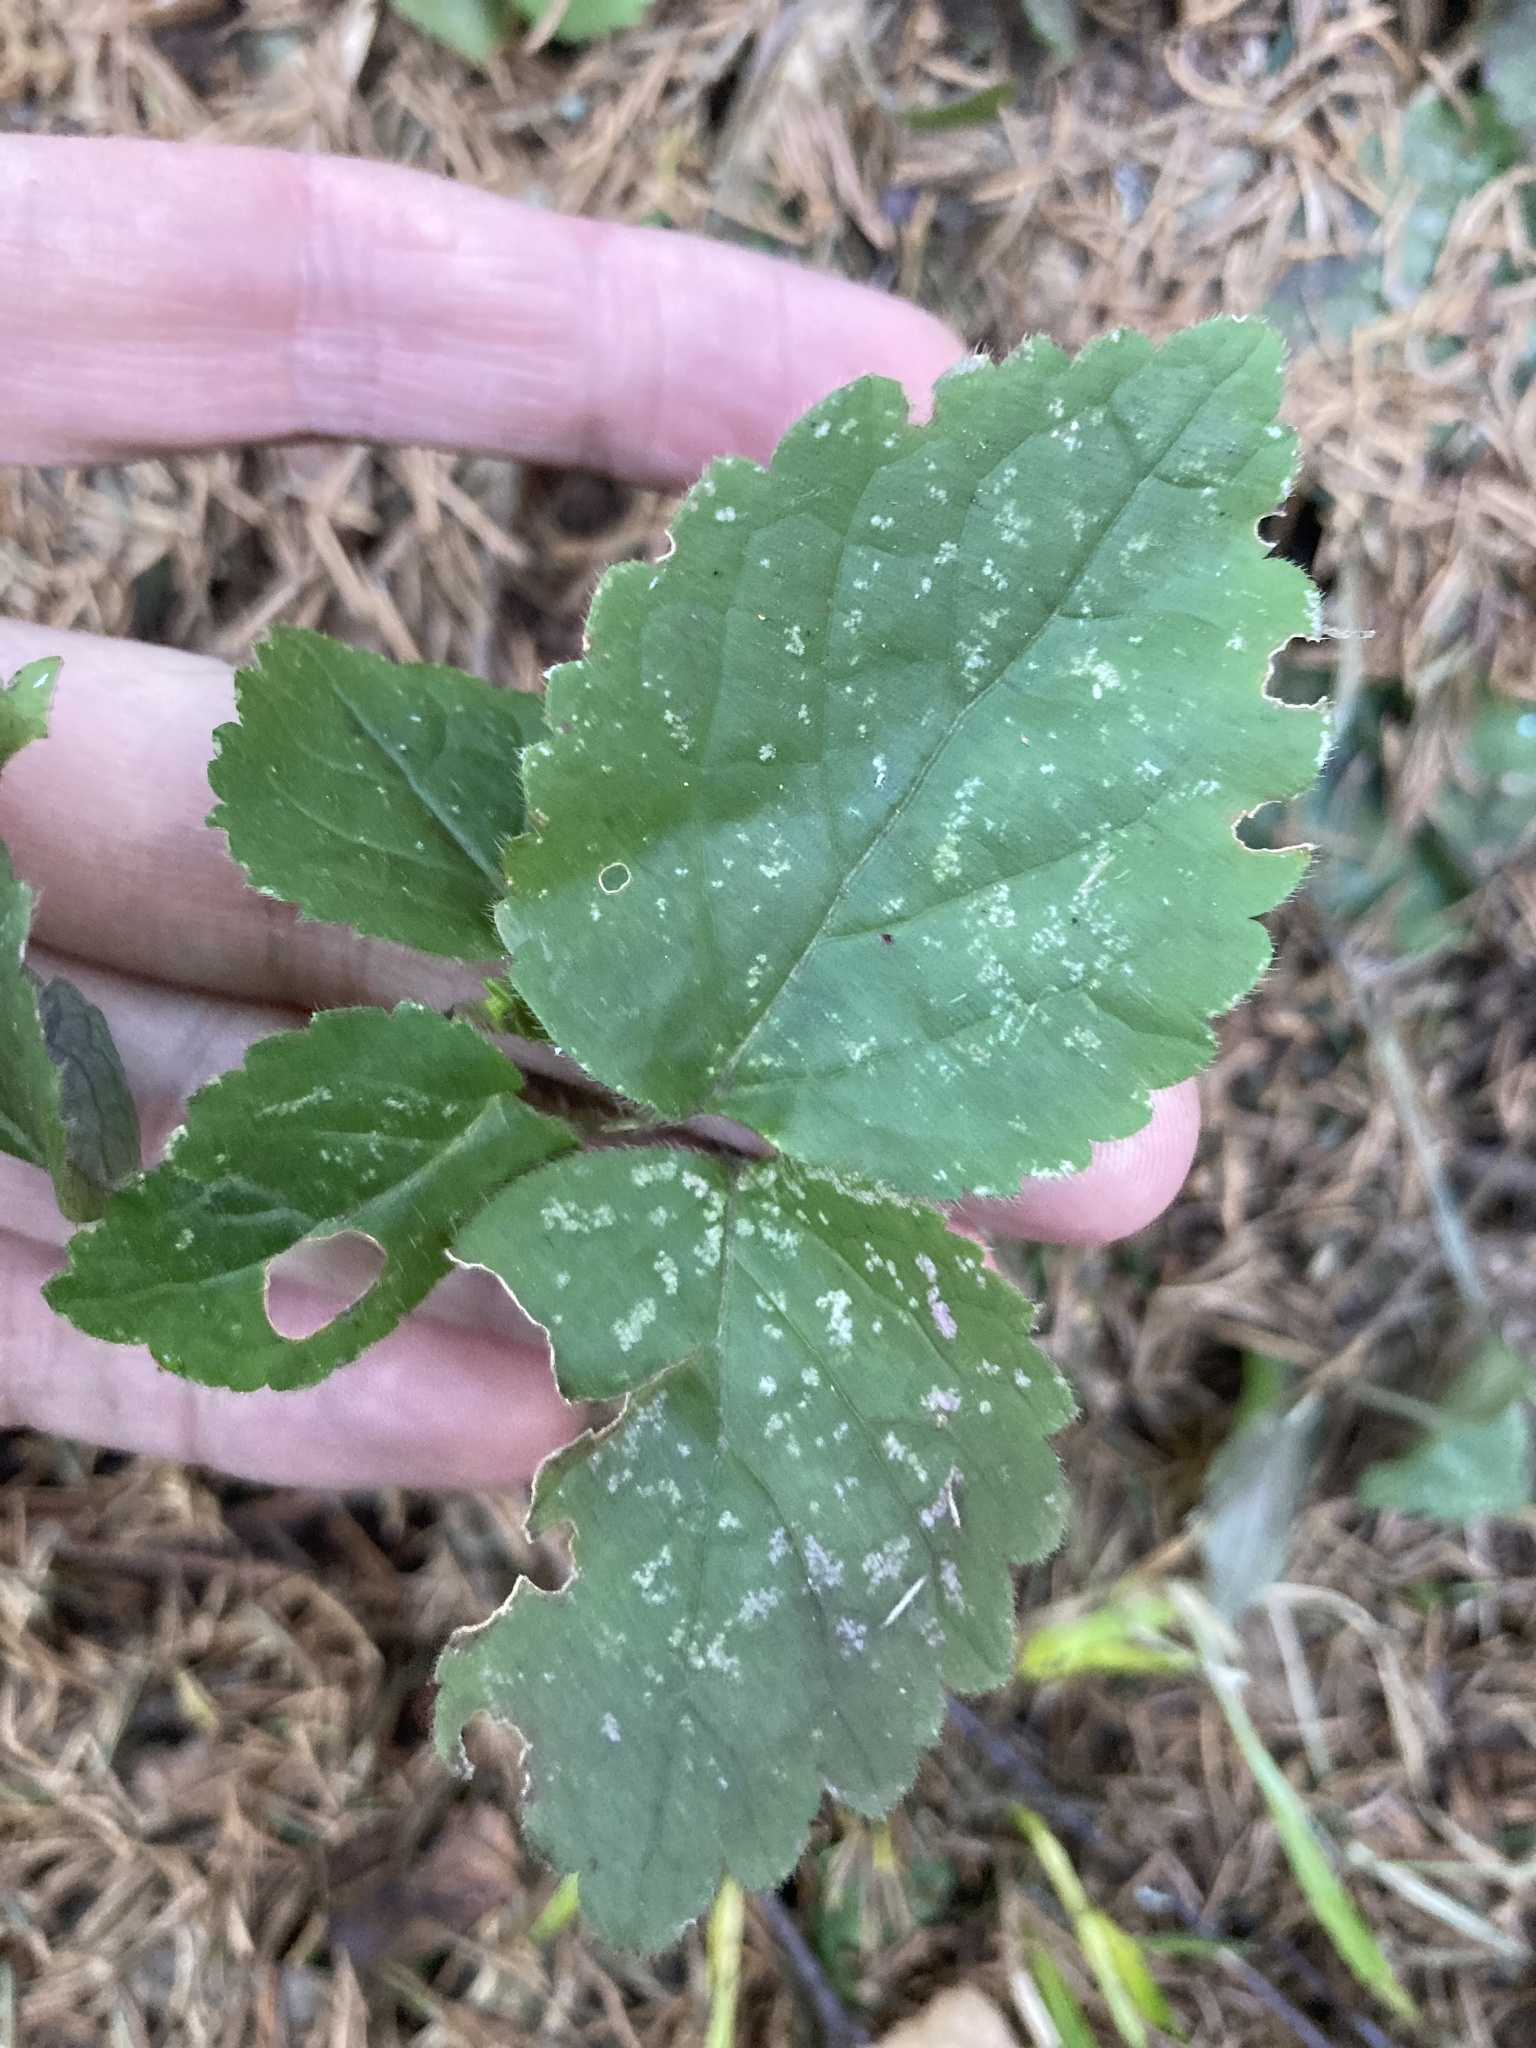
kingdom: Plantae
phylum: Tracheophyta
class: Magnoliopsida
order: Lamiales
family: Lamiaceae
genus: Lamium
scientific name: Lamium galeobdolon
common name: Yellow archangel
